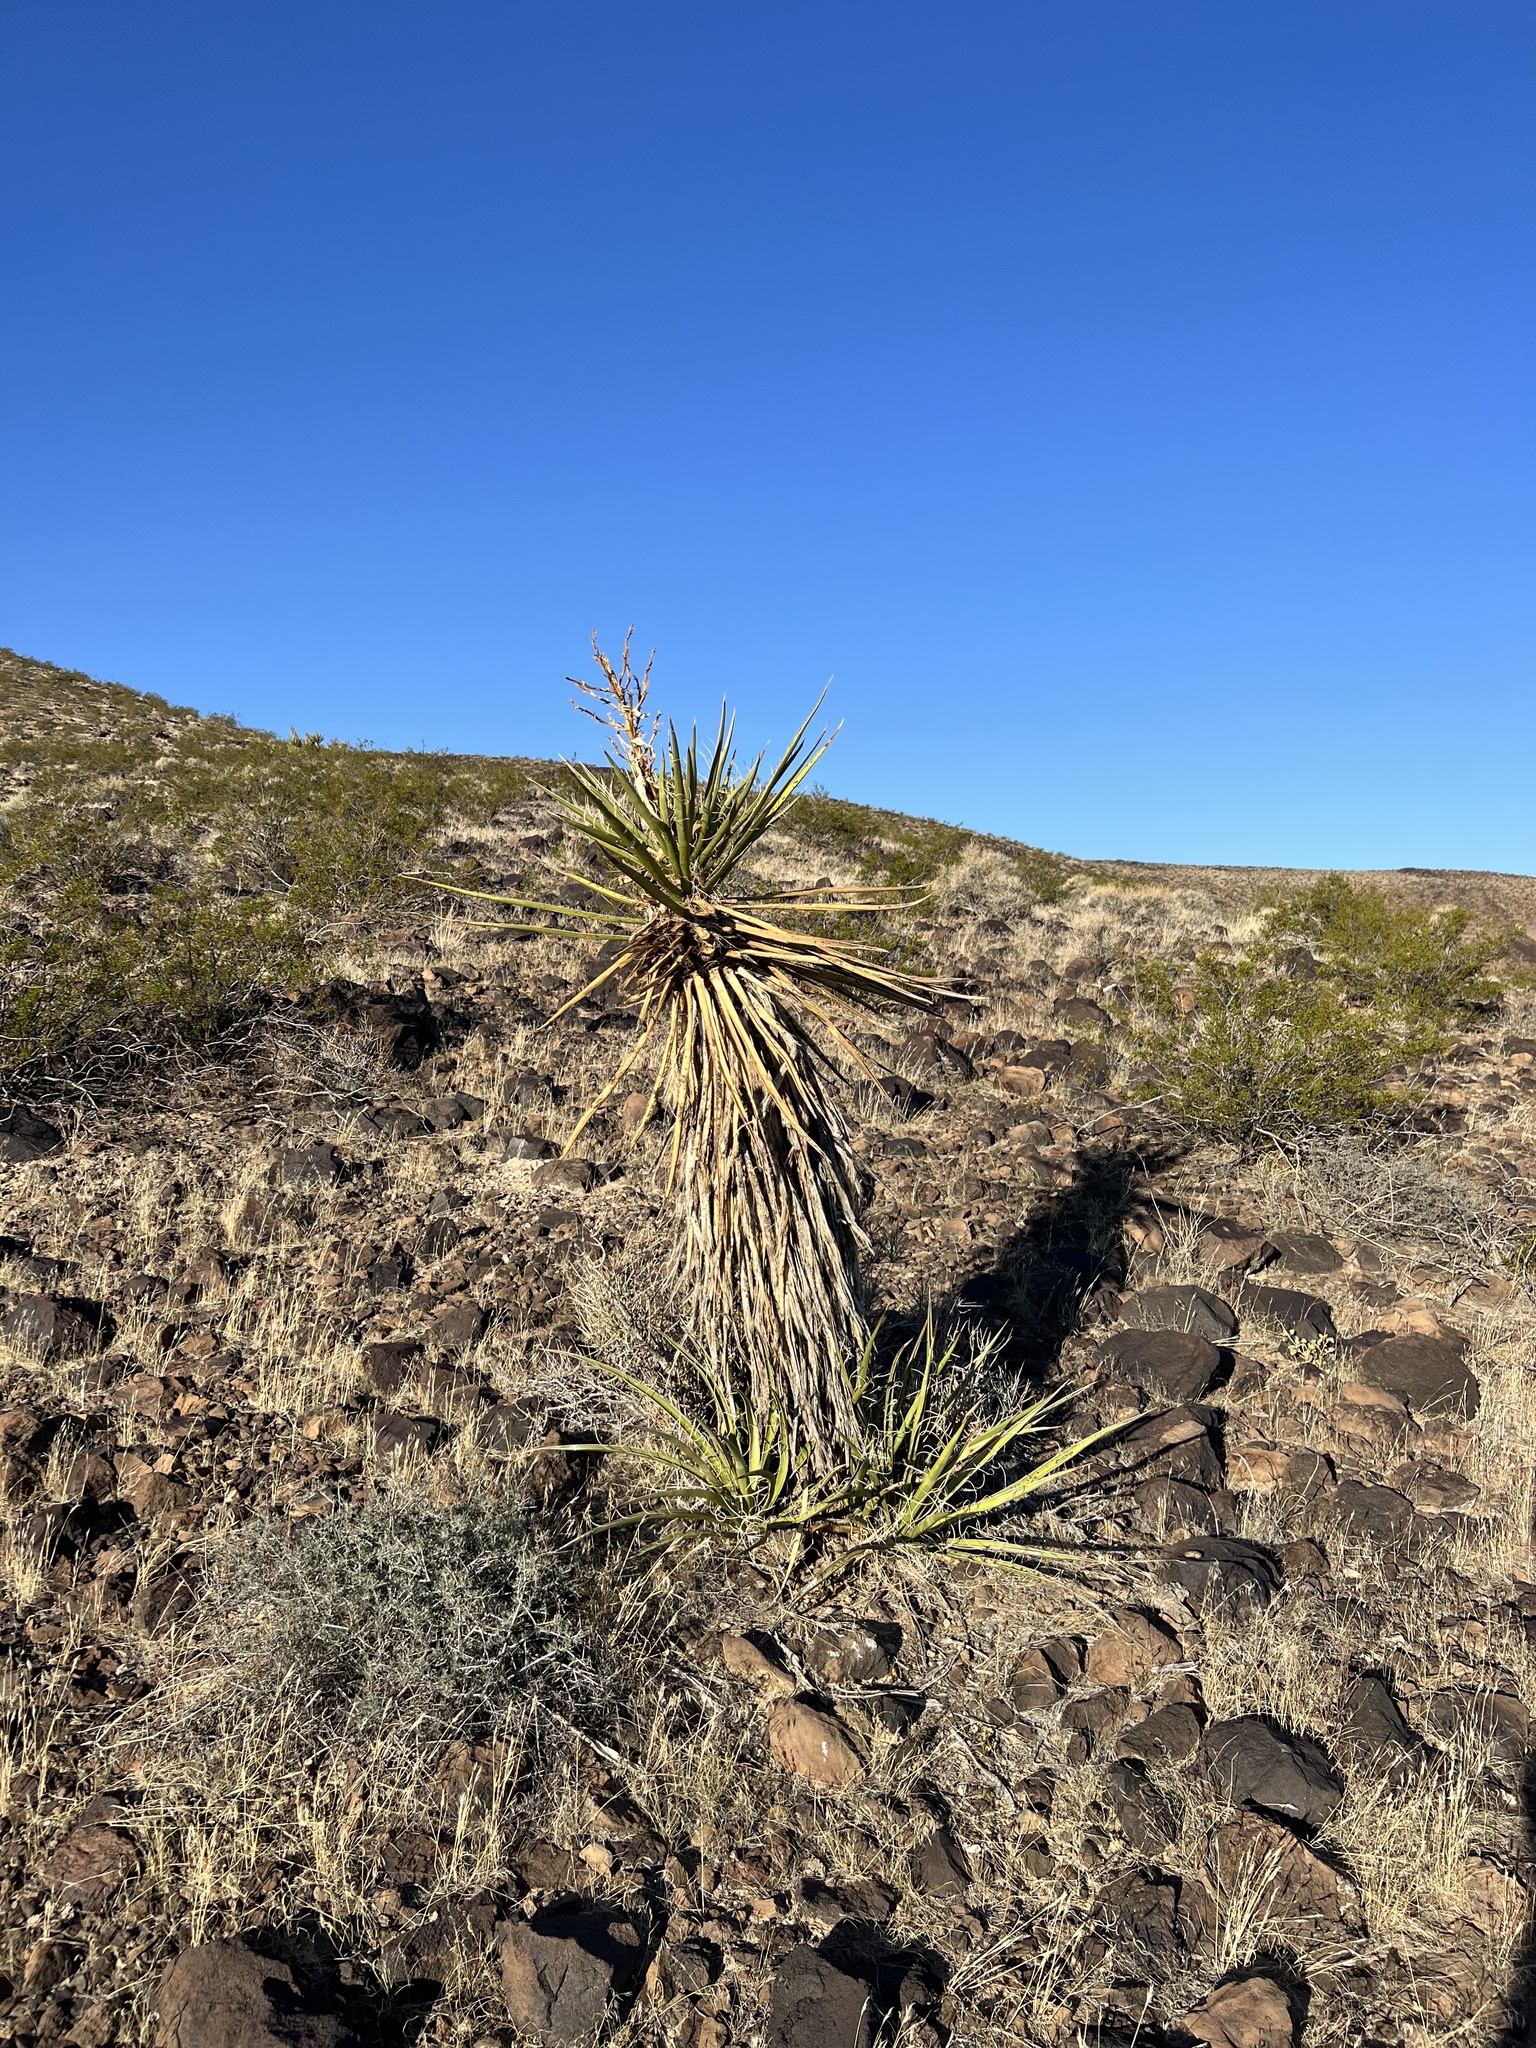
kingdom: Plantae
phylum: Tracheophyta
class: Liliopsida
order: Asparagales
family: Asparagaceae
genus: Yucca
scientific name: Yucca schidigera
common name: Mojave yucca
